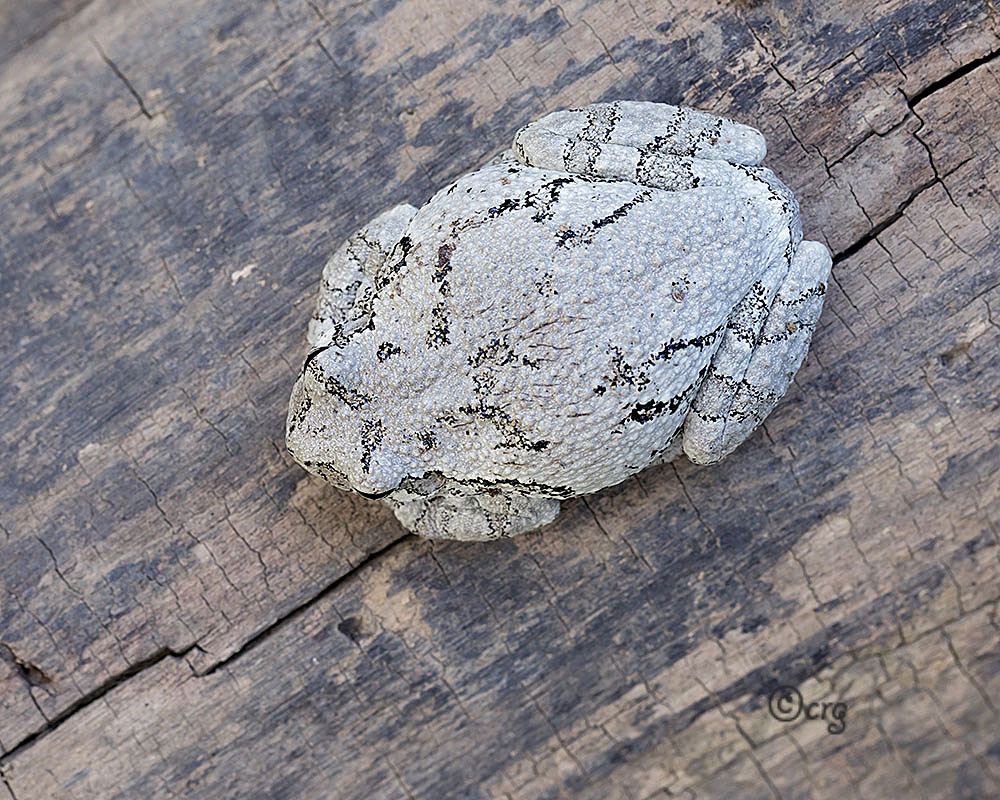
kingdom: Animalia
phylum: Chordata
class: Amphibia
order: Anura
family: Hylidae
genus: Dryophytes
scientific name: Dryophytes versicolor
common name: Gray treefrog
